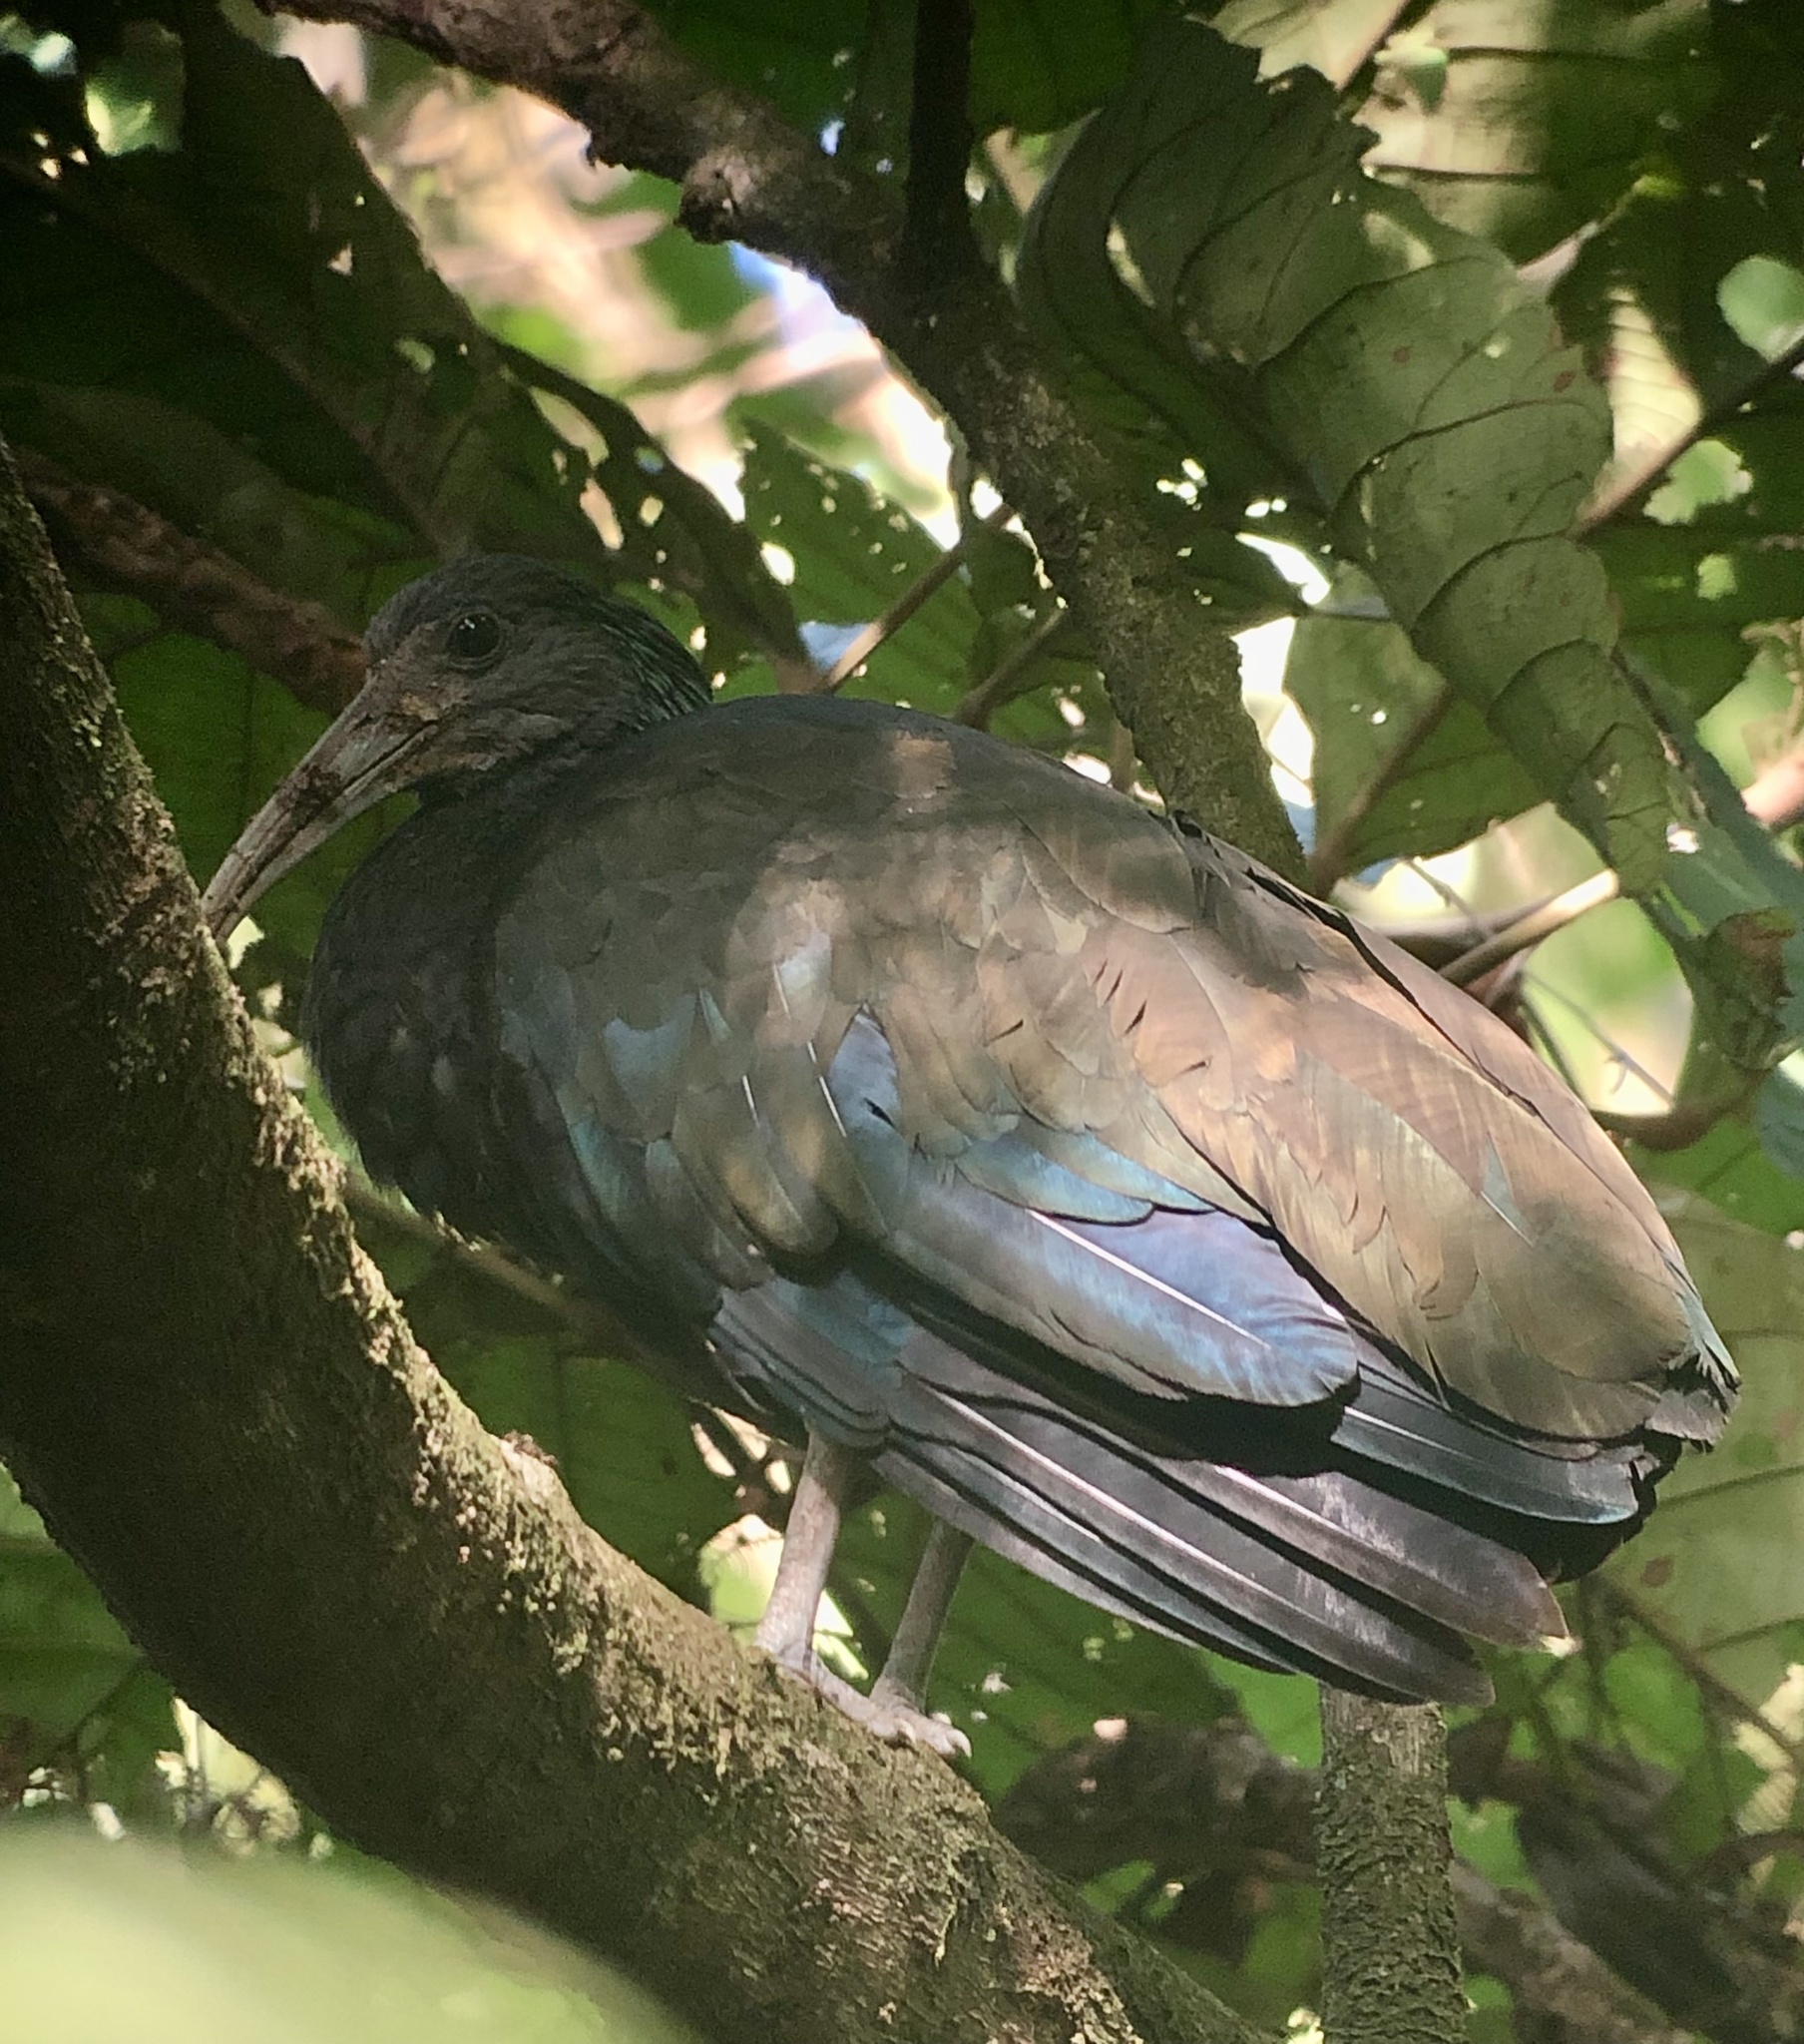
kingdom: Animalia
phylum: Chordata
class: Aves
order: Pelecaniformes
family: Threskiornithidae
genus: Mesembrinibis
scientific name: Mesembrinibis cayennensis
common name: Green ibis
